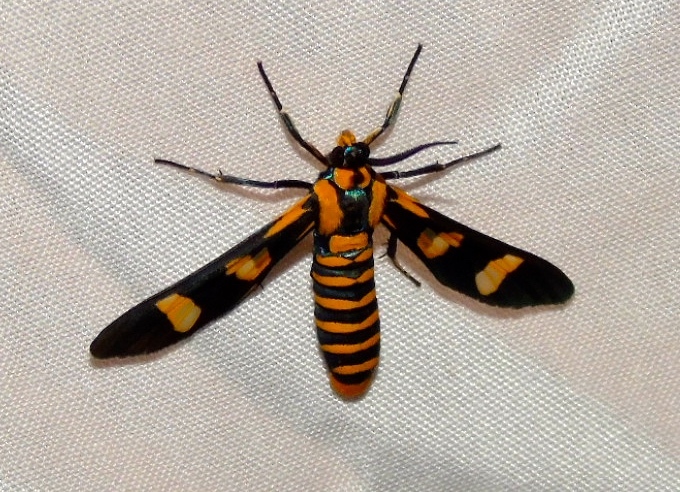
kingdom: Animalia
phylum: Arthropoda
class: Insecta
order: Lepidoptera
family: Erebidae
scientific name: Erebidae
